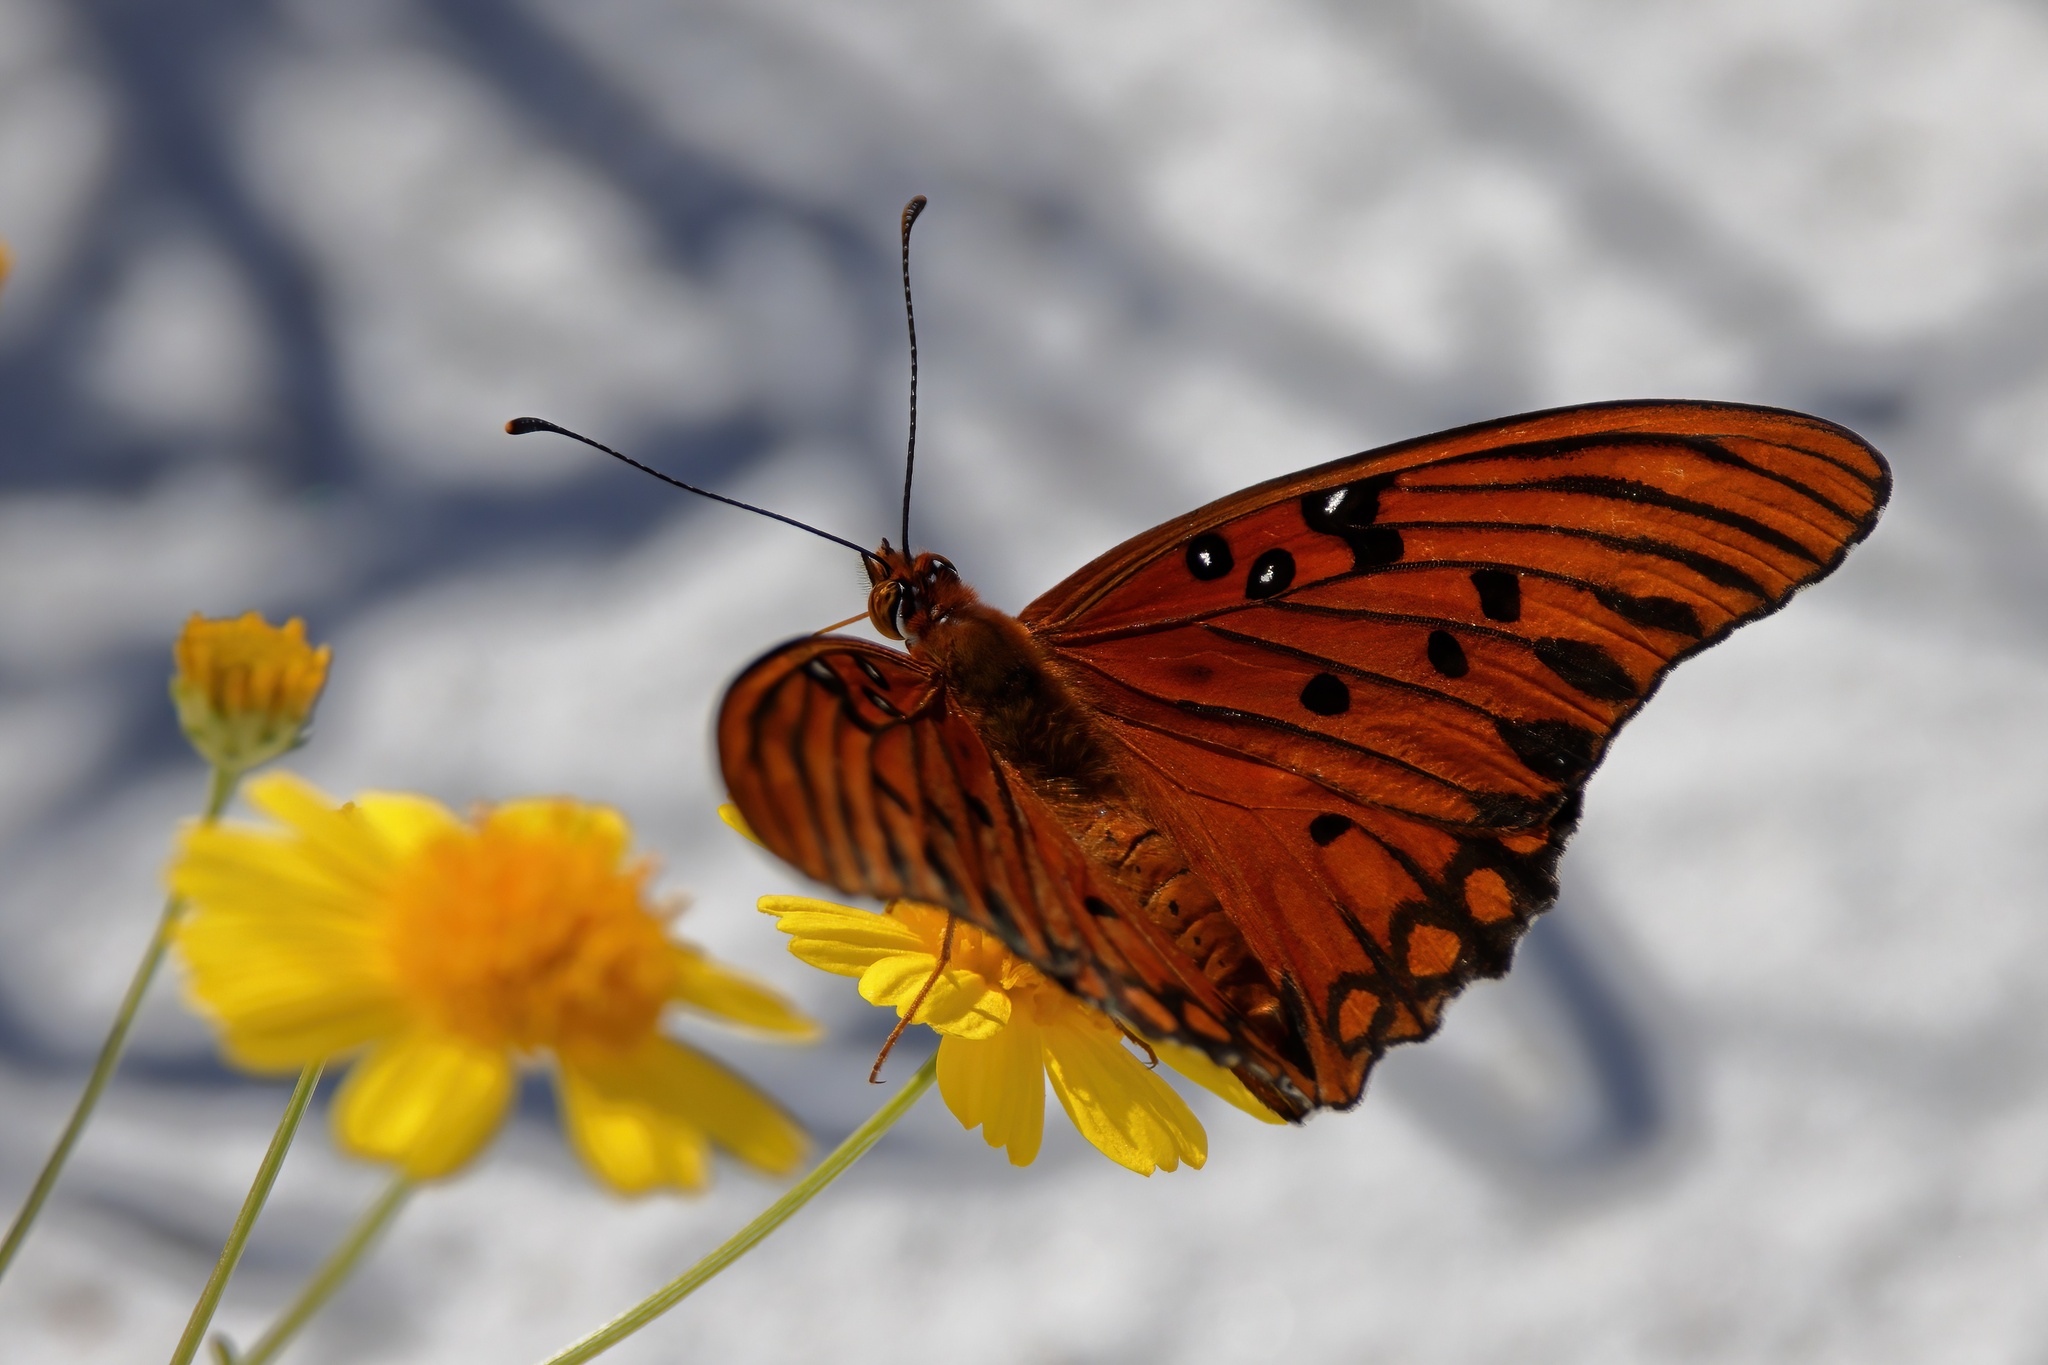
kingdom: Animalia
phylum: Arthropoda
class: Insecta
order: Lepidoptera
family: Nymphalidae
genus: Dione
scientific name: Dione vanillae
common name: Gulf fritillary
